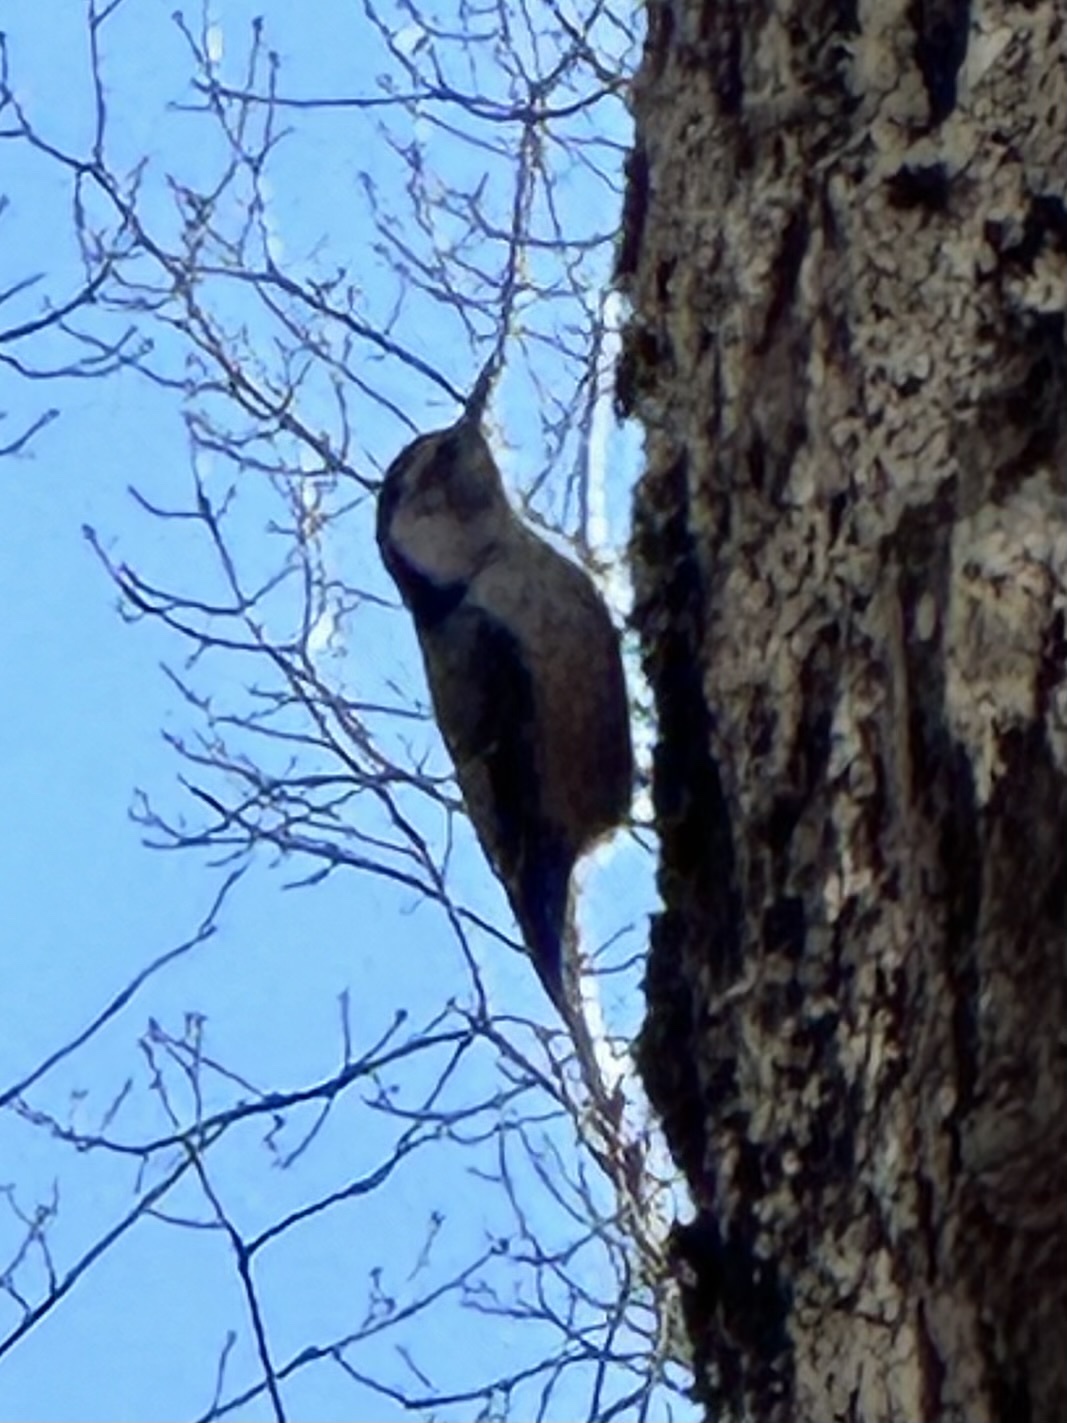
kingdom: Animalia
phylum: Chordata
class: Aves
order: Passeriformes
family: Sittidae
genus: Sitta
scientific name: Sitta carolinensis
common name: White-breasted nuthatch
